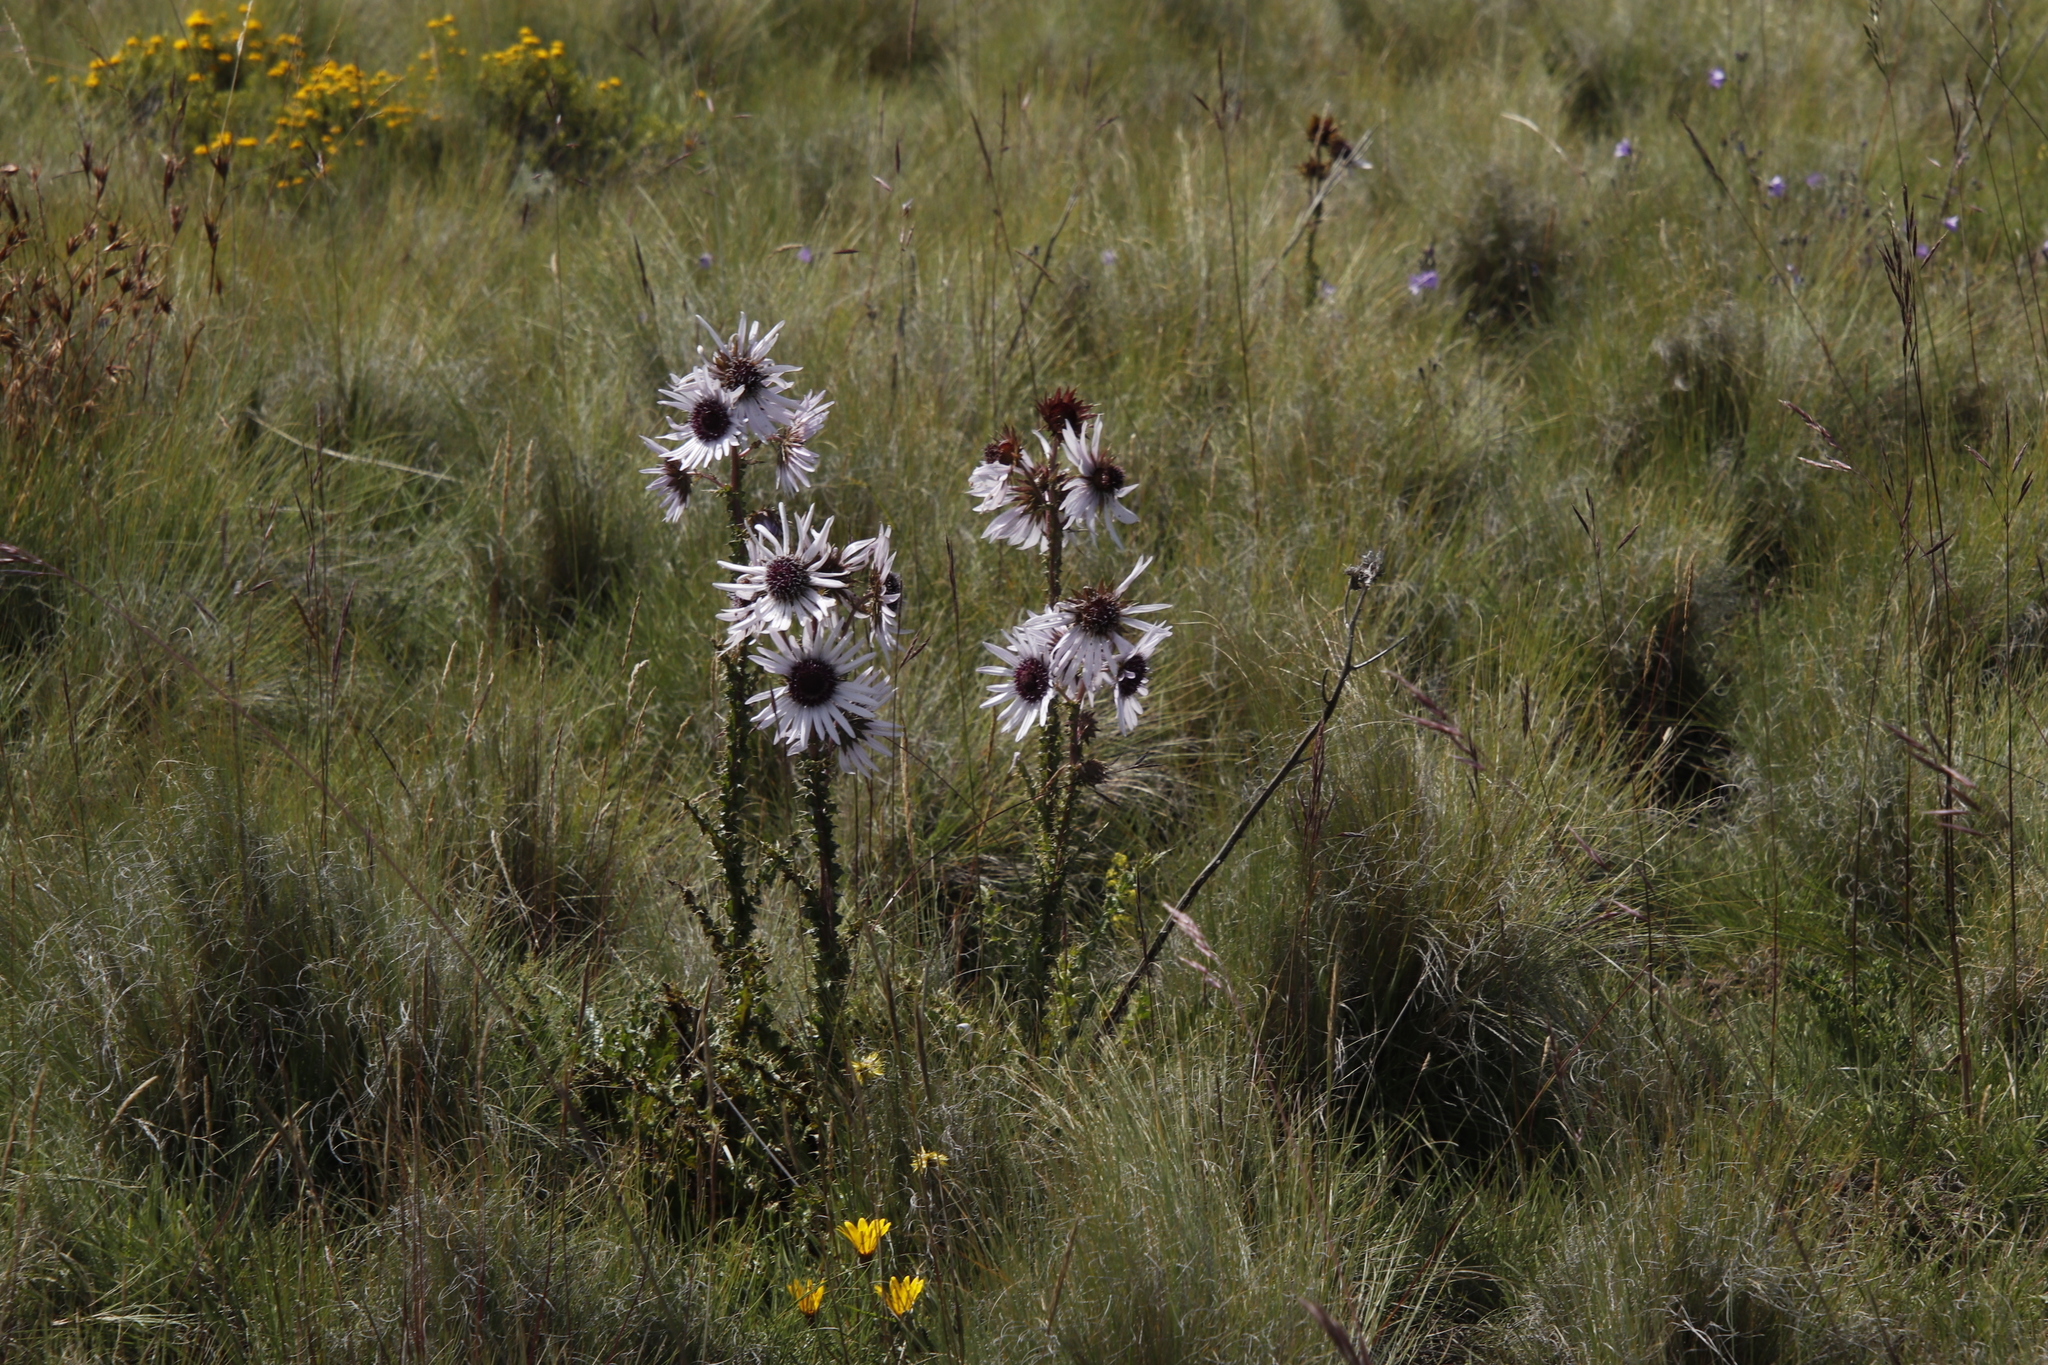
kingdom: Plantae
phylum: Tracheophyta
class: Magnoliopsida
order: Asterales
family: Asteraceae
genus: Berkheya
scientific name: Berkheya purpurea
